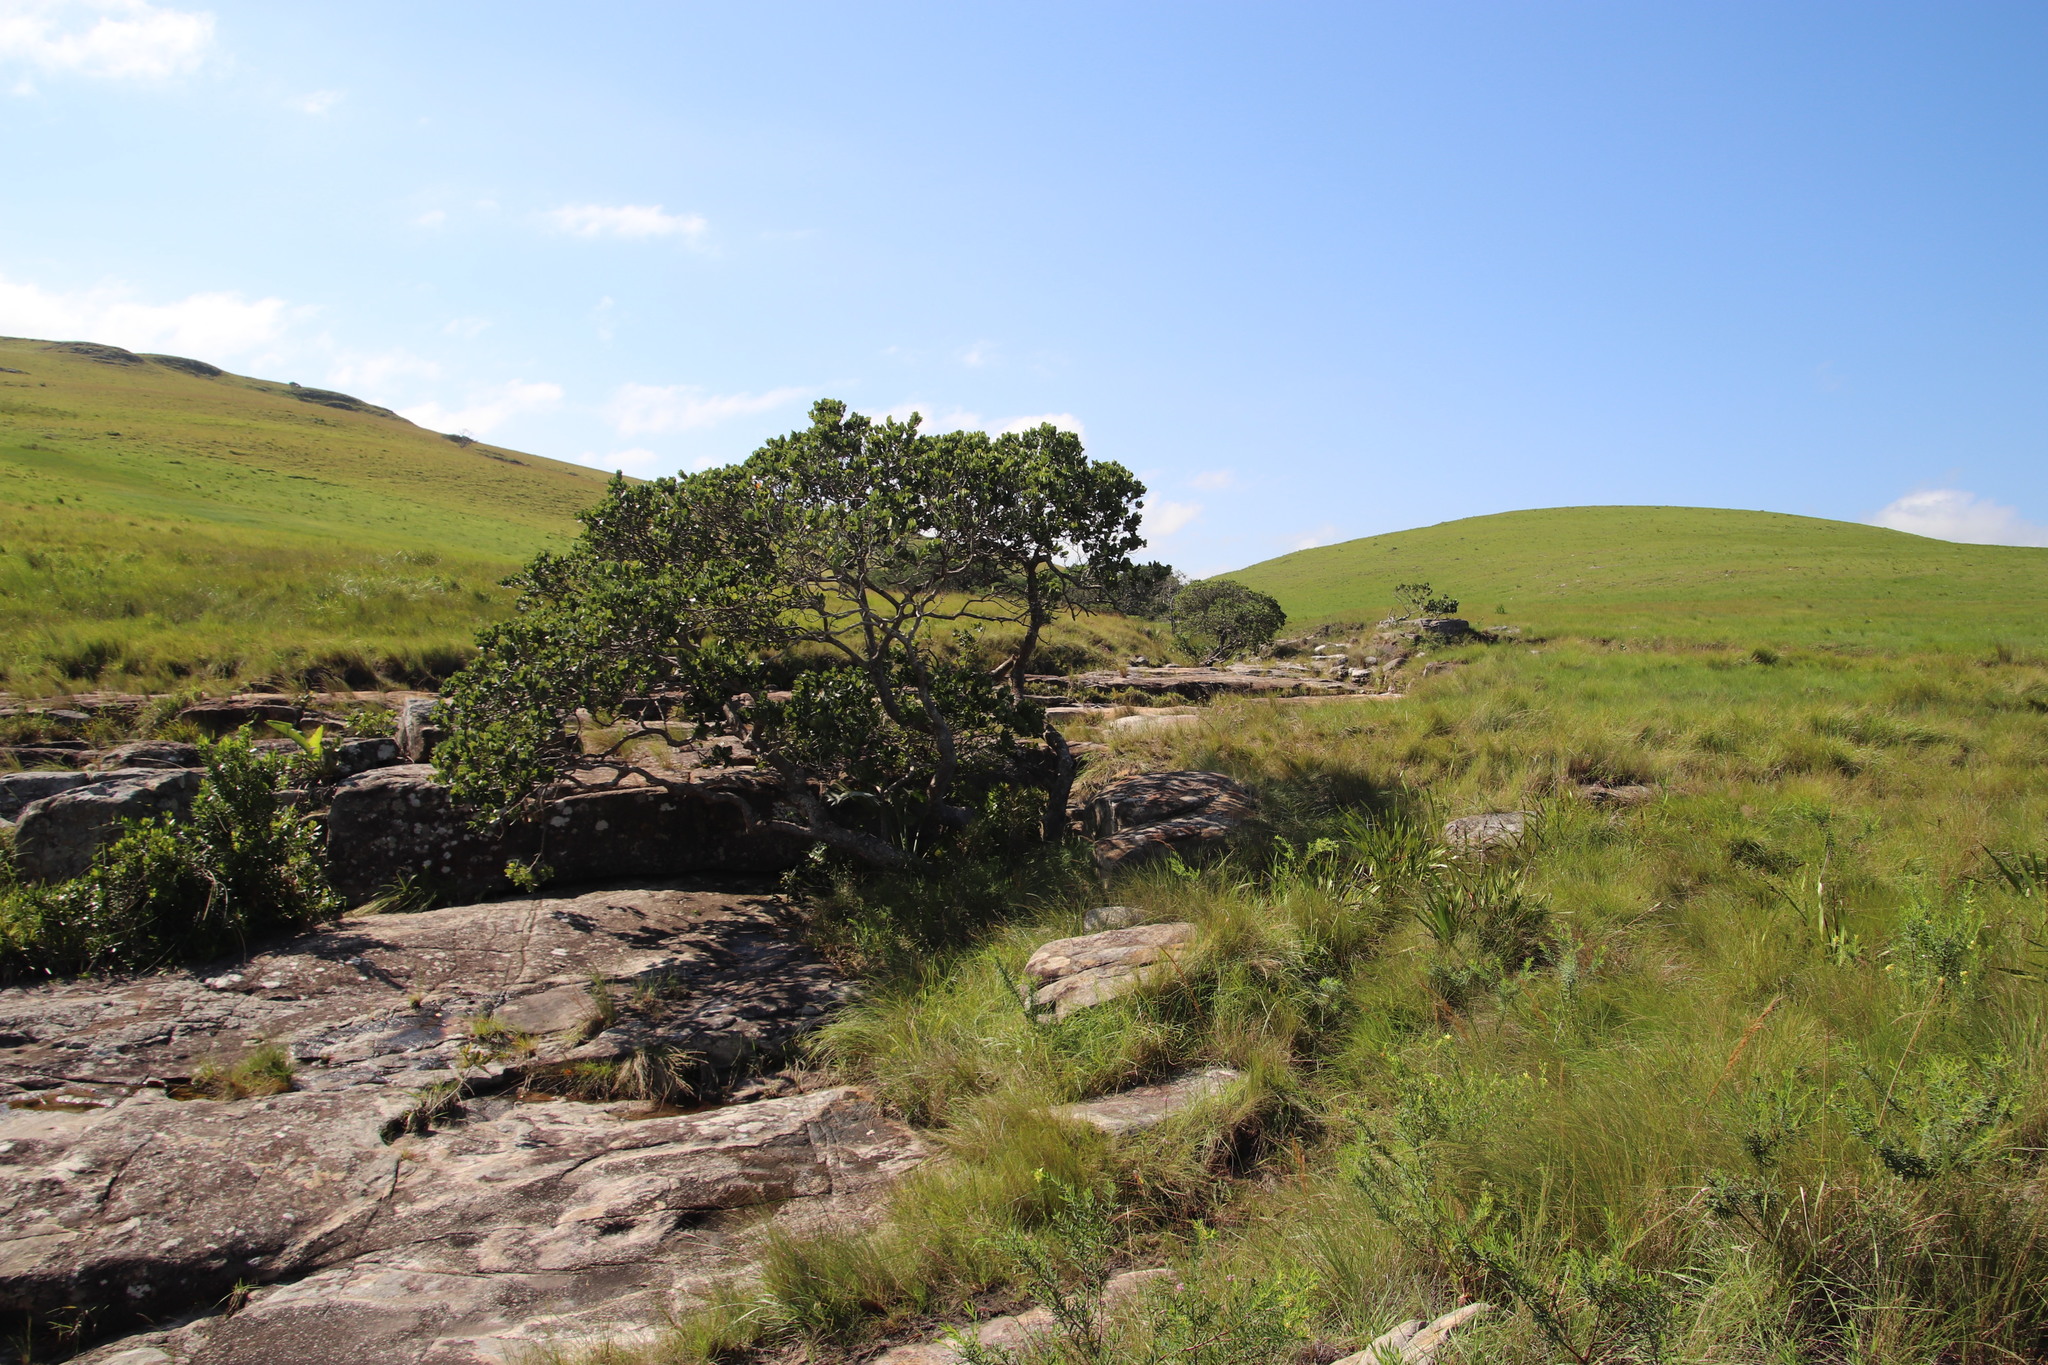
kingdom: Plantae
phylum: Tracheophyta
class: Magnoliopsida
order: Myrtales
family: Myrtaceae
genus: Syzygium
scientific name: Syzygium cordatum
